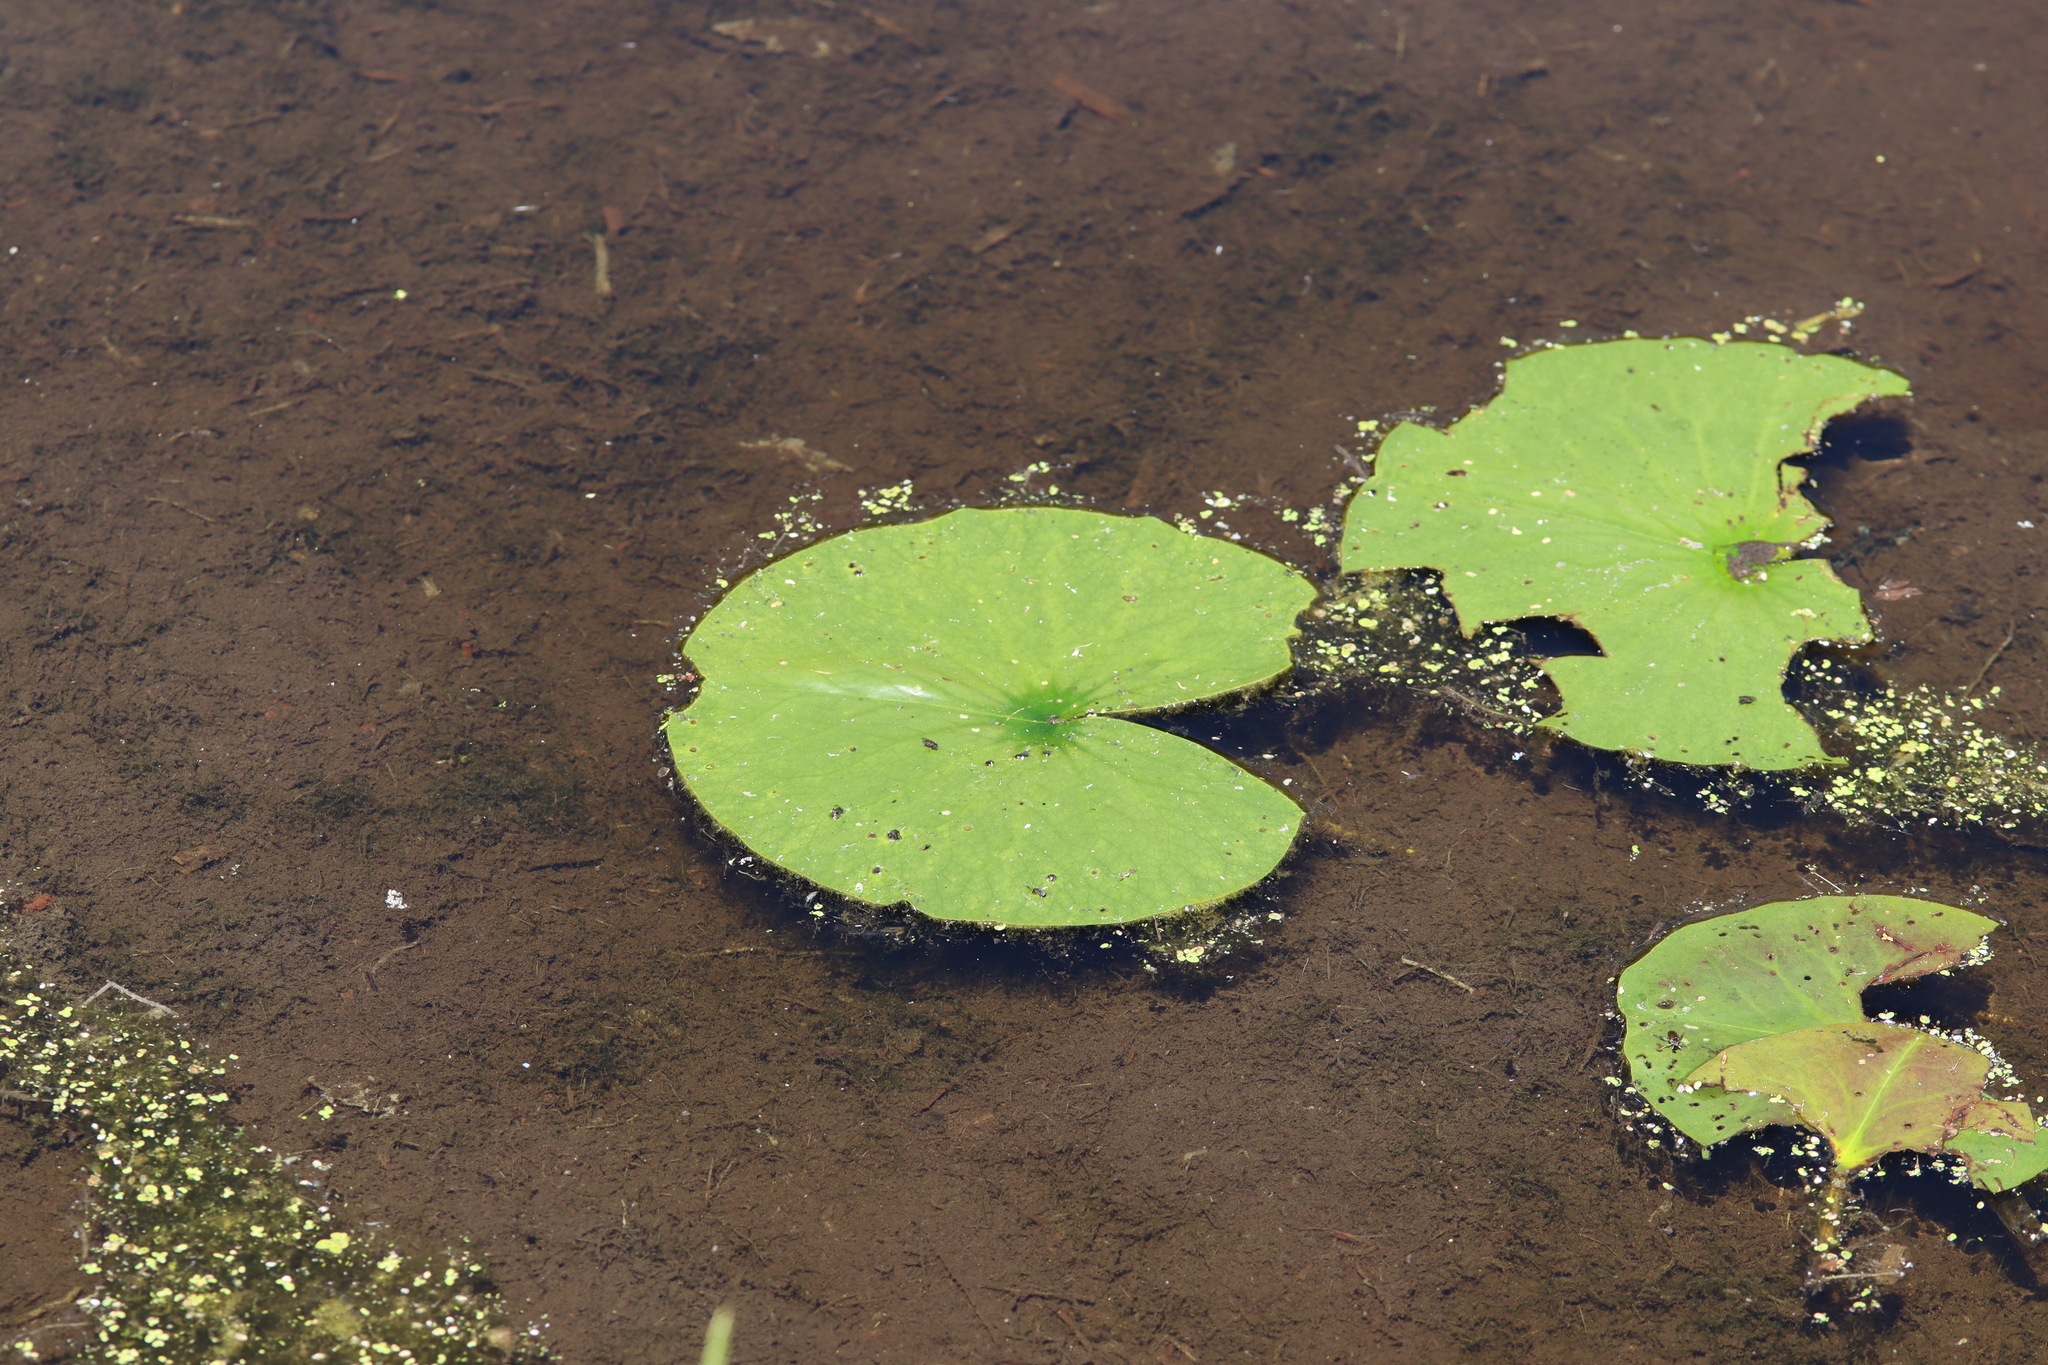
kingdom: Plantae
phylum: Tracheophyta
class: Magnoliopsida
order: Nymphaeales
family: Nymphaeaceae
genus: Nymphaea
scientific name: Nymphaea odorata
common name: Fragrant water-lily
